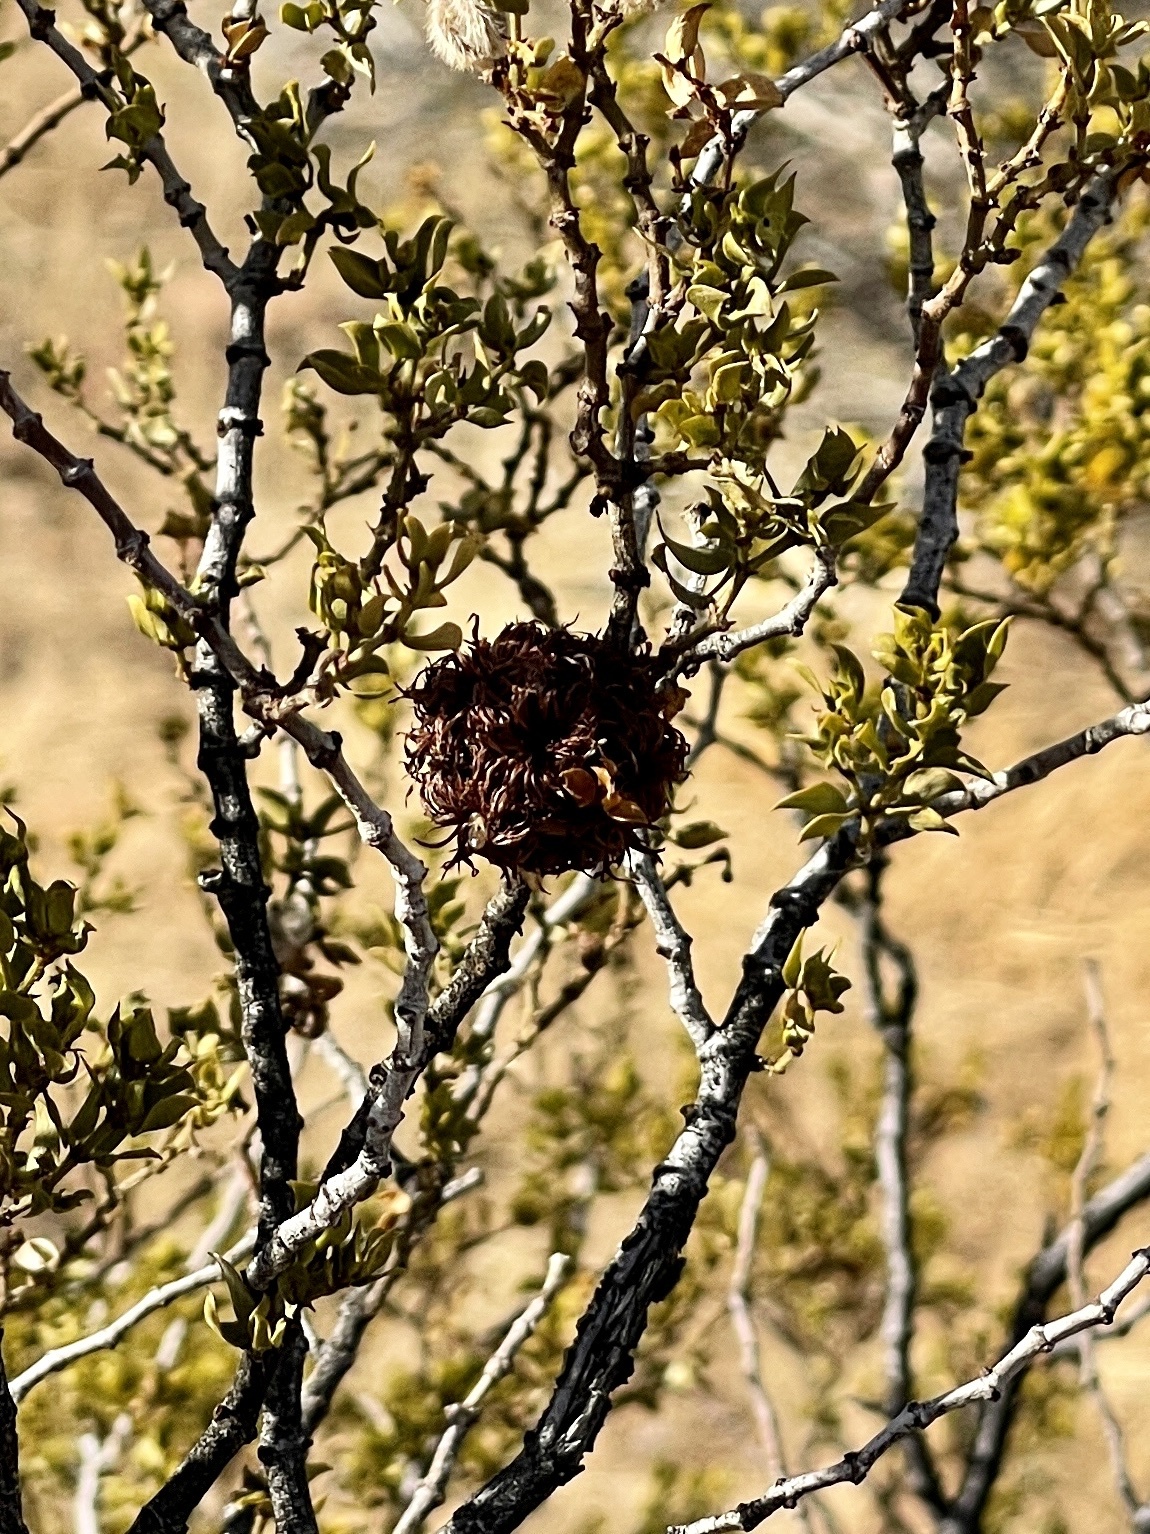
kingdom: Animalia
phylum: Arthropoda
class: Insecta
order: Diptera
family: Cecidomyiidae
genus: Asphondylia
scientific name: Asphondylia auripila
